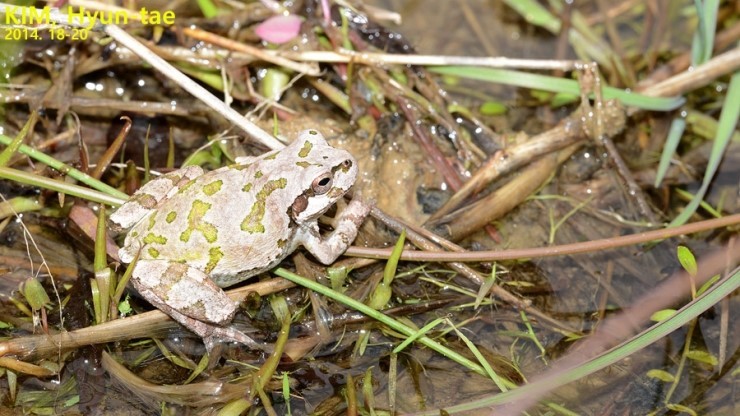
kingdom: Animalia
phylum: Chordata
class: Amphibia
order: Anura
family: Hylidae
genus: Dryophytes
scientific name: Dryophytes japonicus
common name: Japanese treefrog
